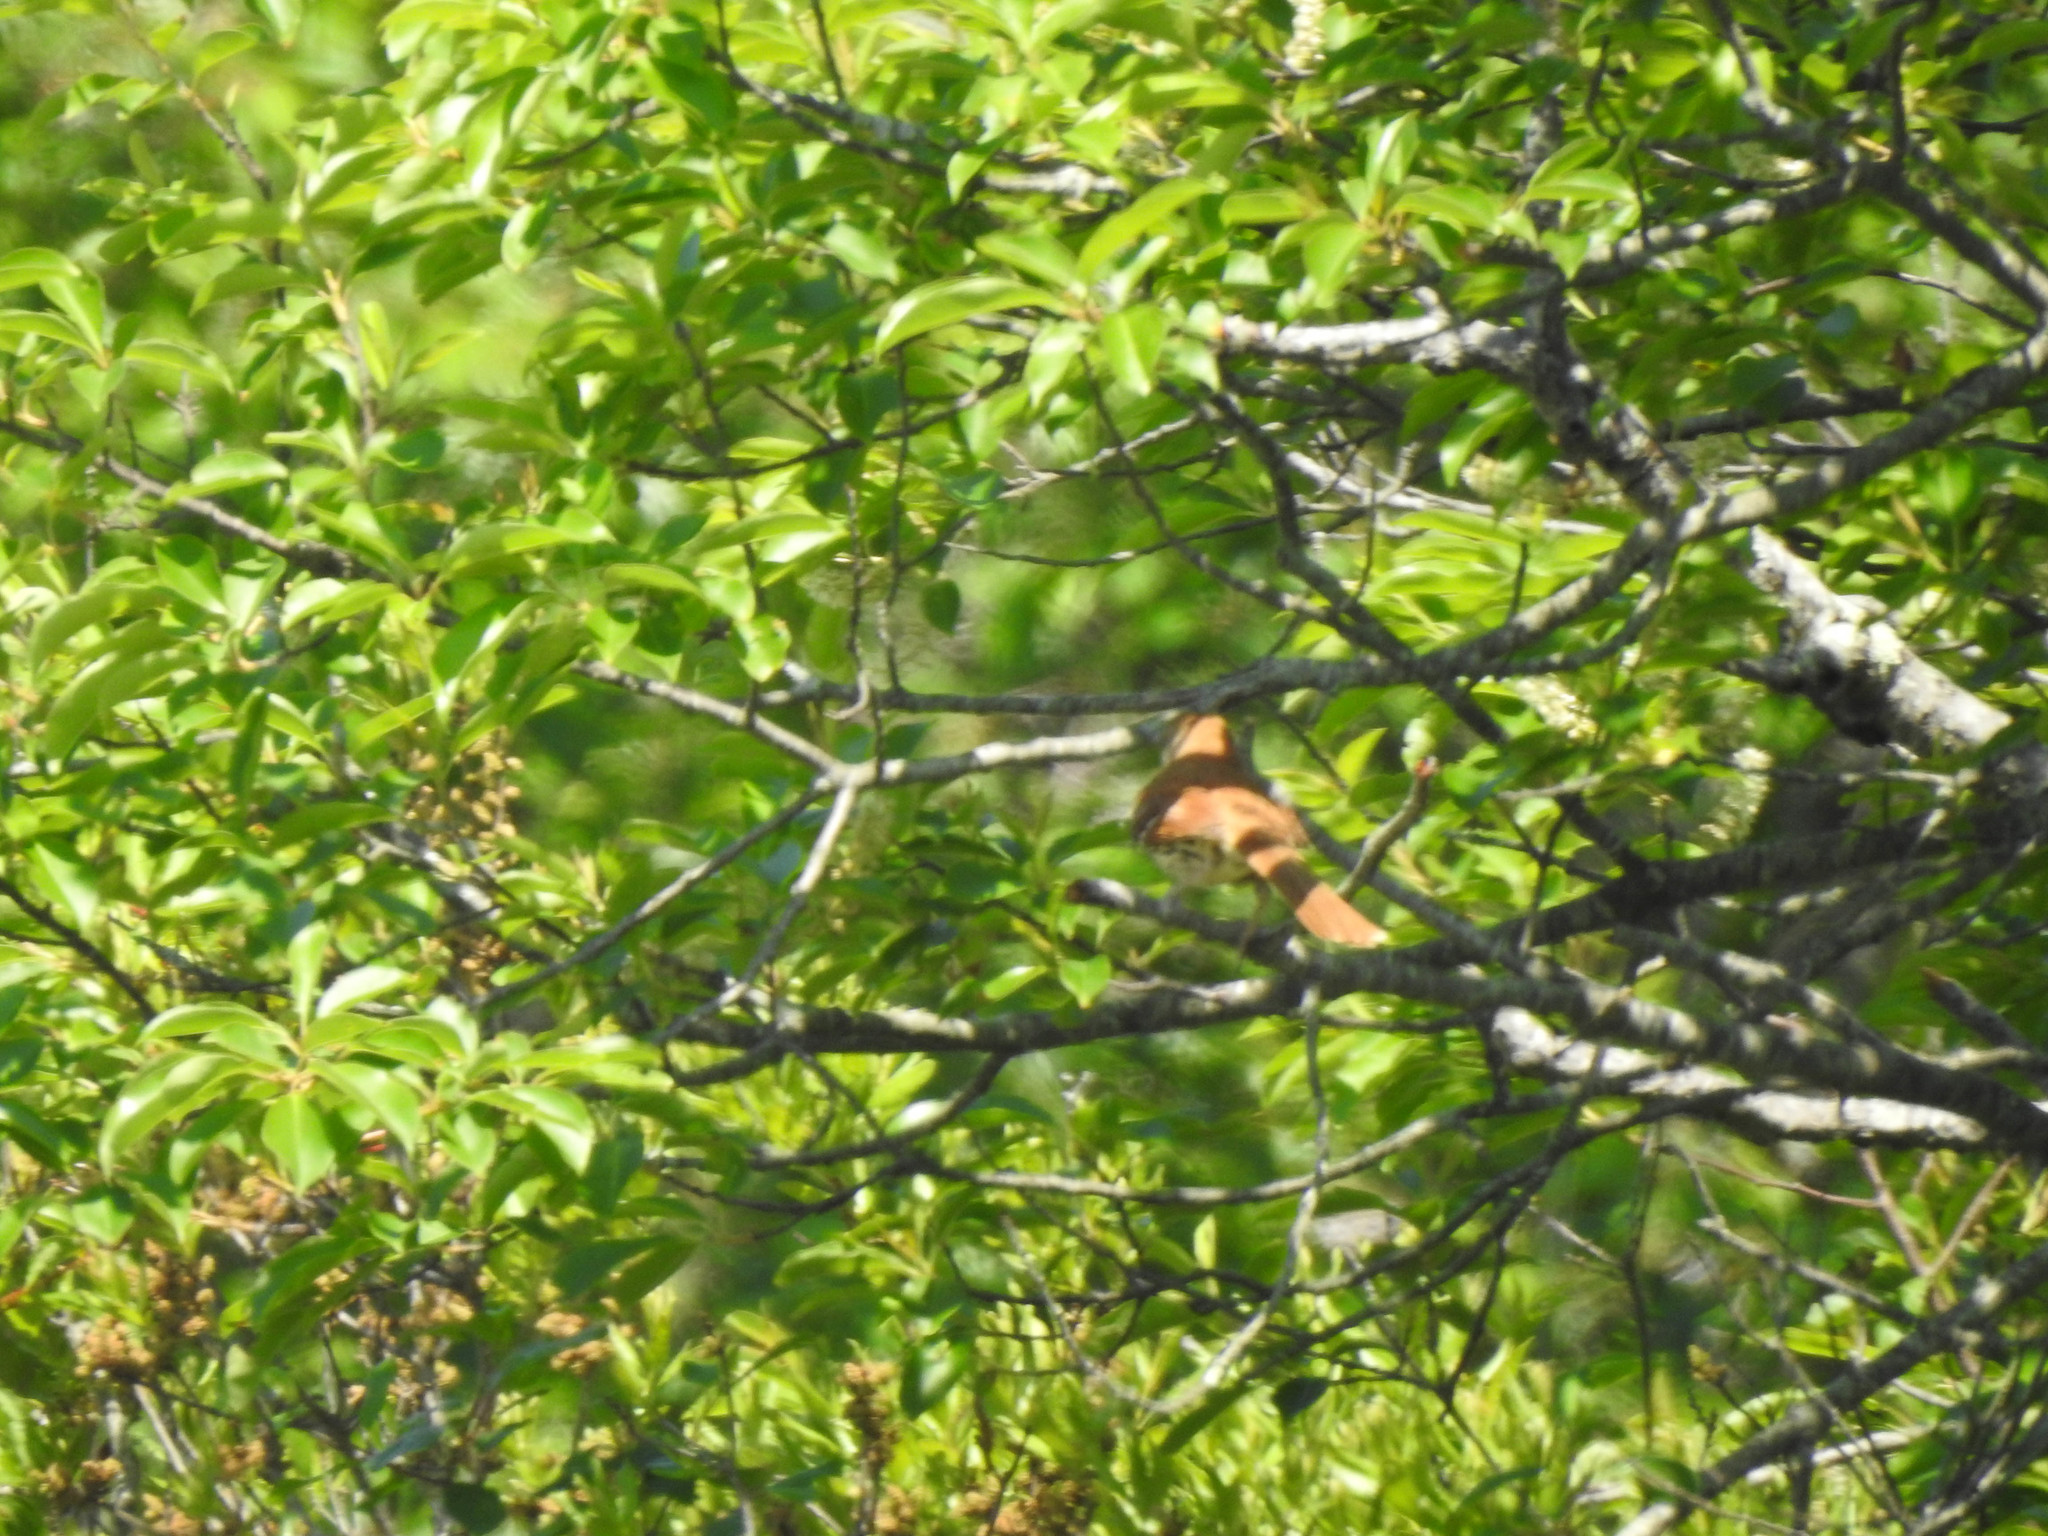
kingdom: Animalia
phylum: Chordata
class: Aves
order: Passeriformes
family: Mimidae
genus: Toxostoma
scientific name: Toxostoma rufum
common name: Brown thrasher
